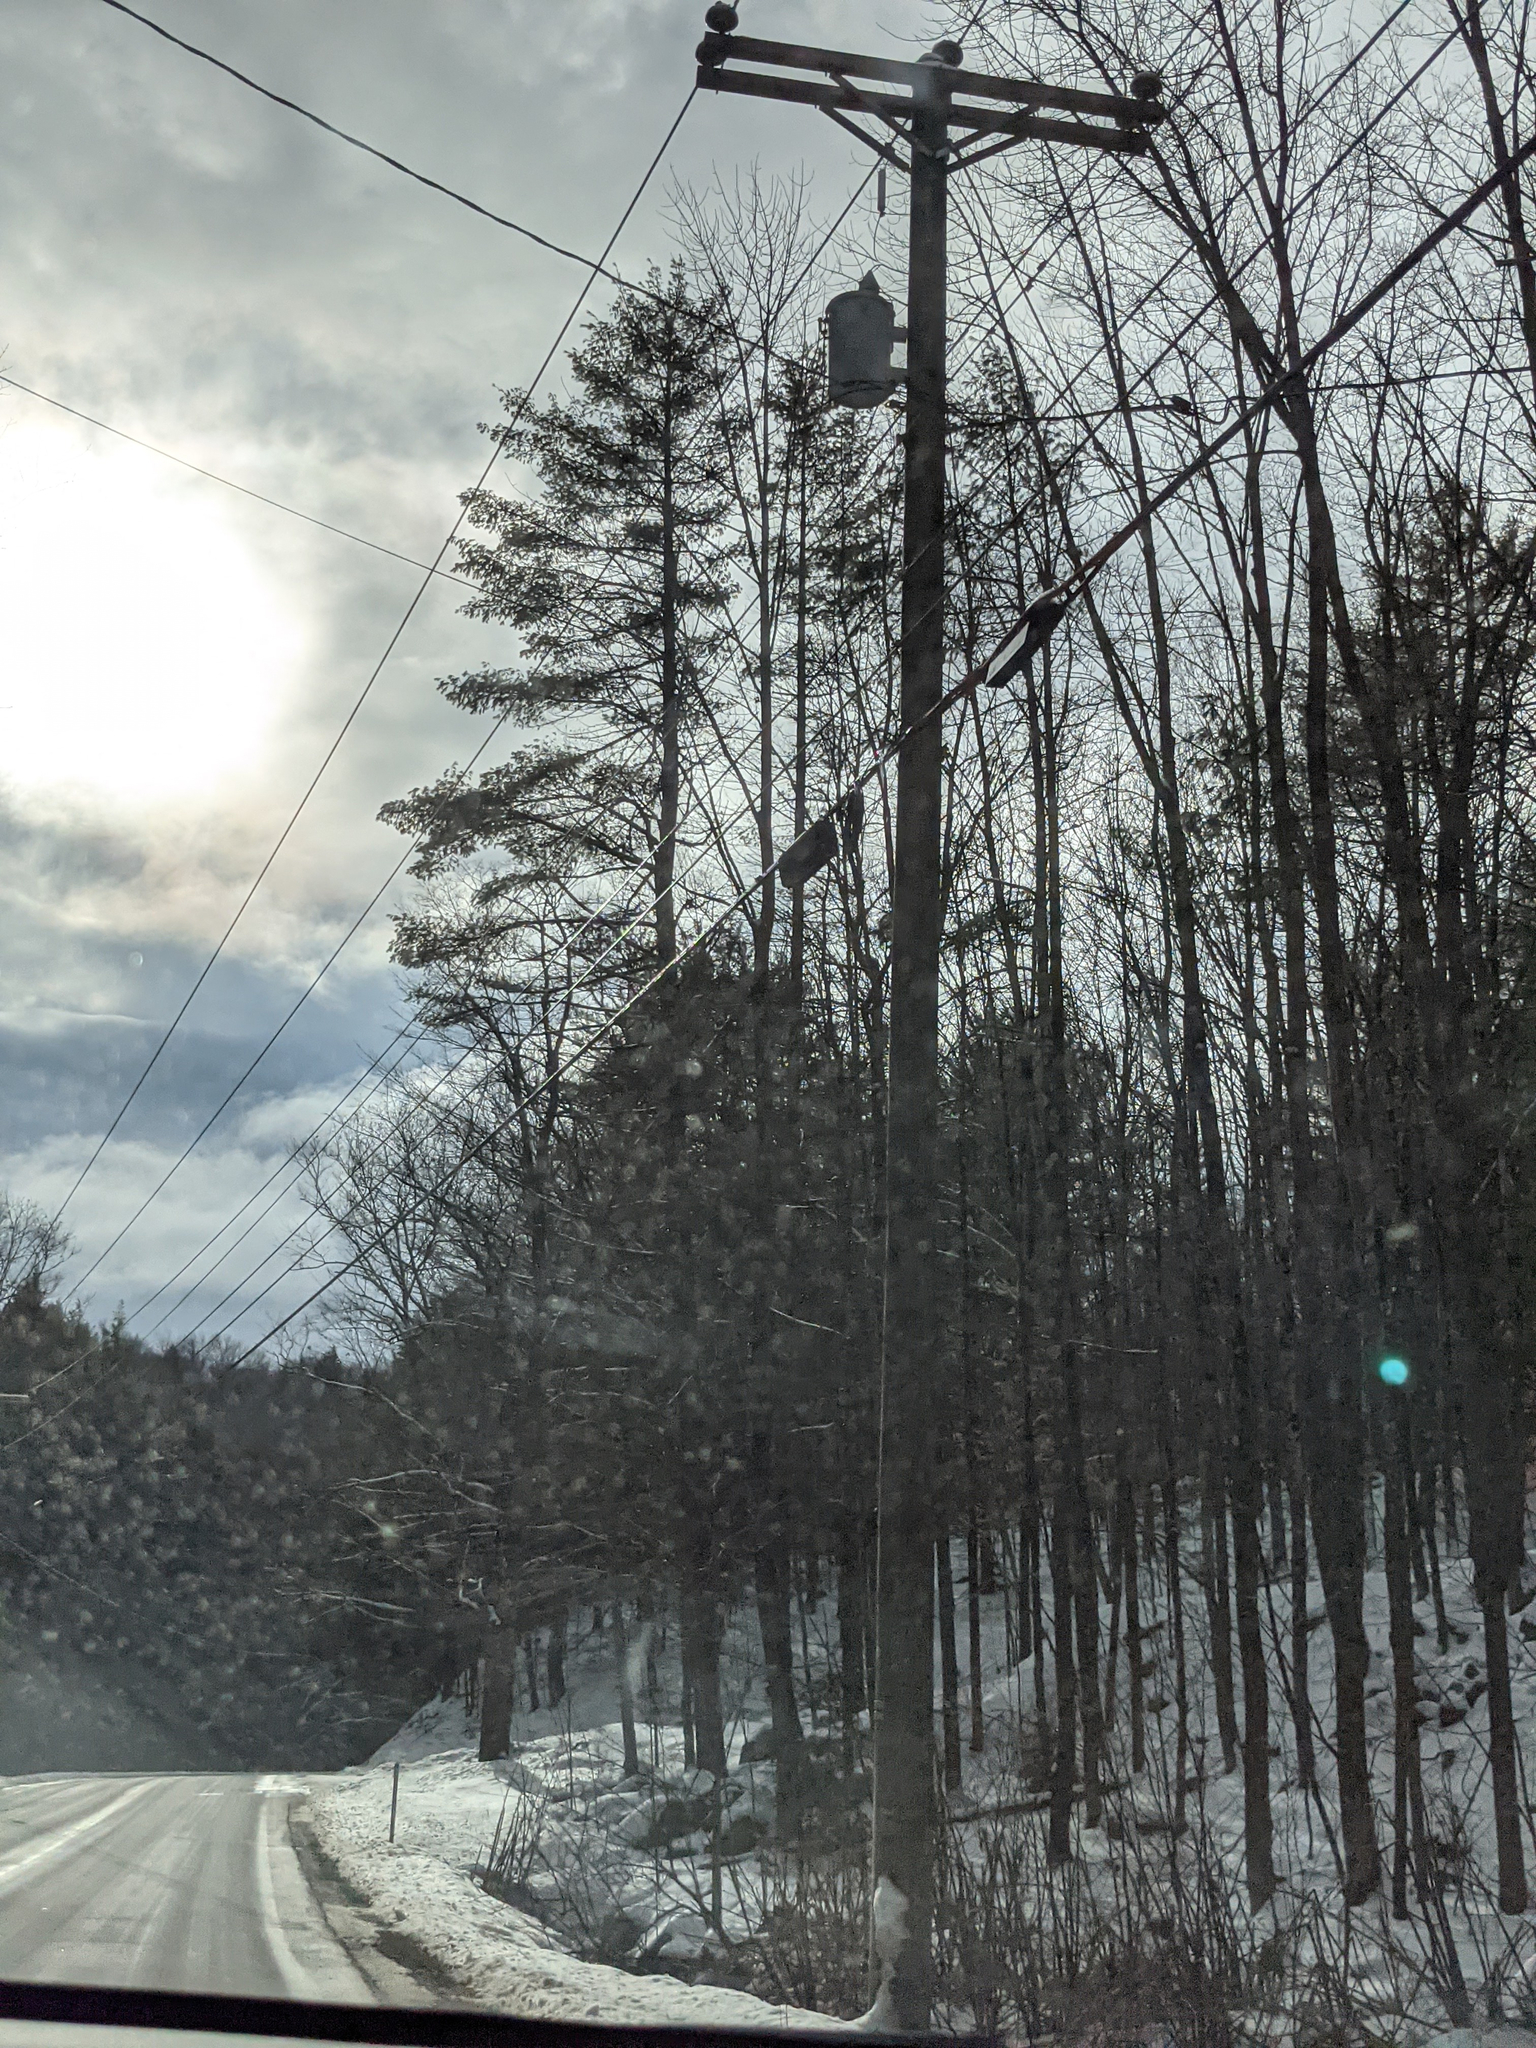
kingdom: Plantae
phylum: Tracheophyta
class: Pinopsida
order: Pinales
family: Pinaceae
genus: Pinus
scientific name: Pinus strobus
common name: Weymouth pine
